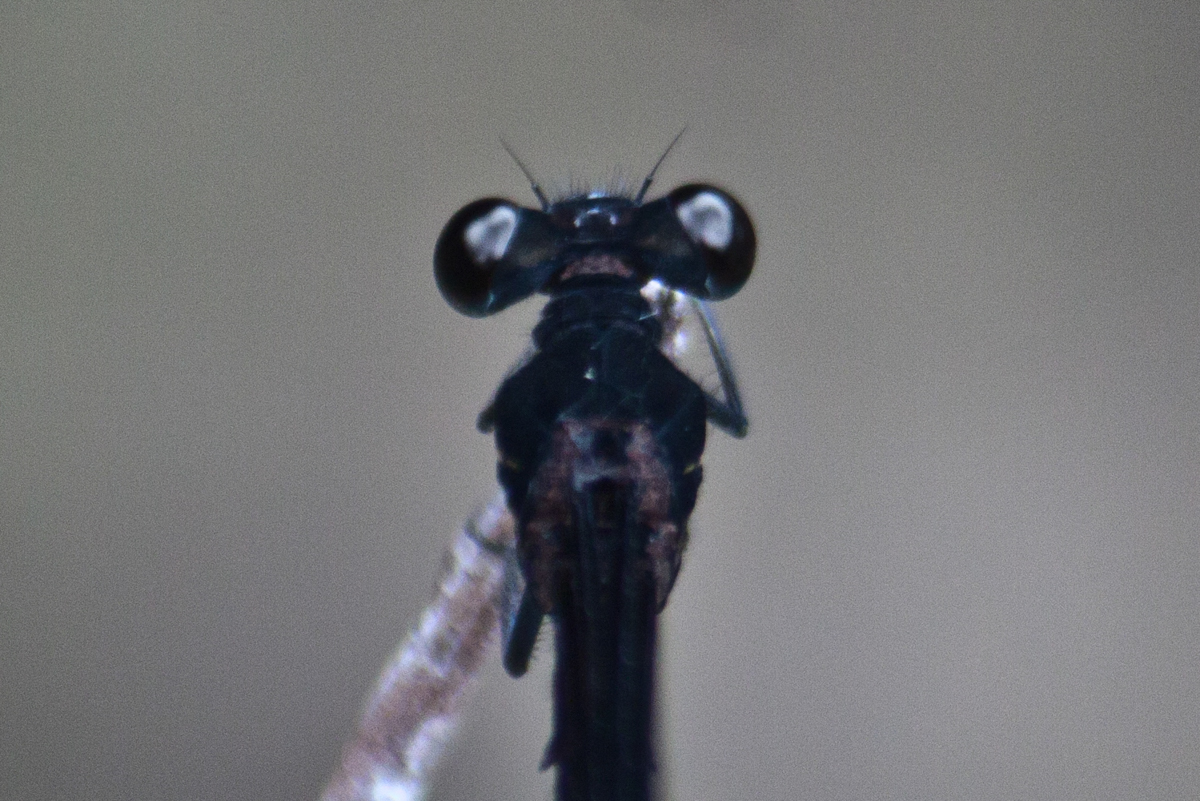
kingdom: Animalia
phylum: Arthropoda
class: Insecta
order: Odonata
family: Euphaeidae
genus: Euphaea
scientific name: Euphaea masoni
